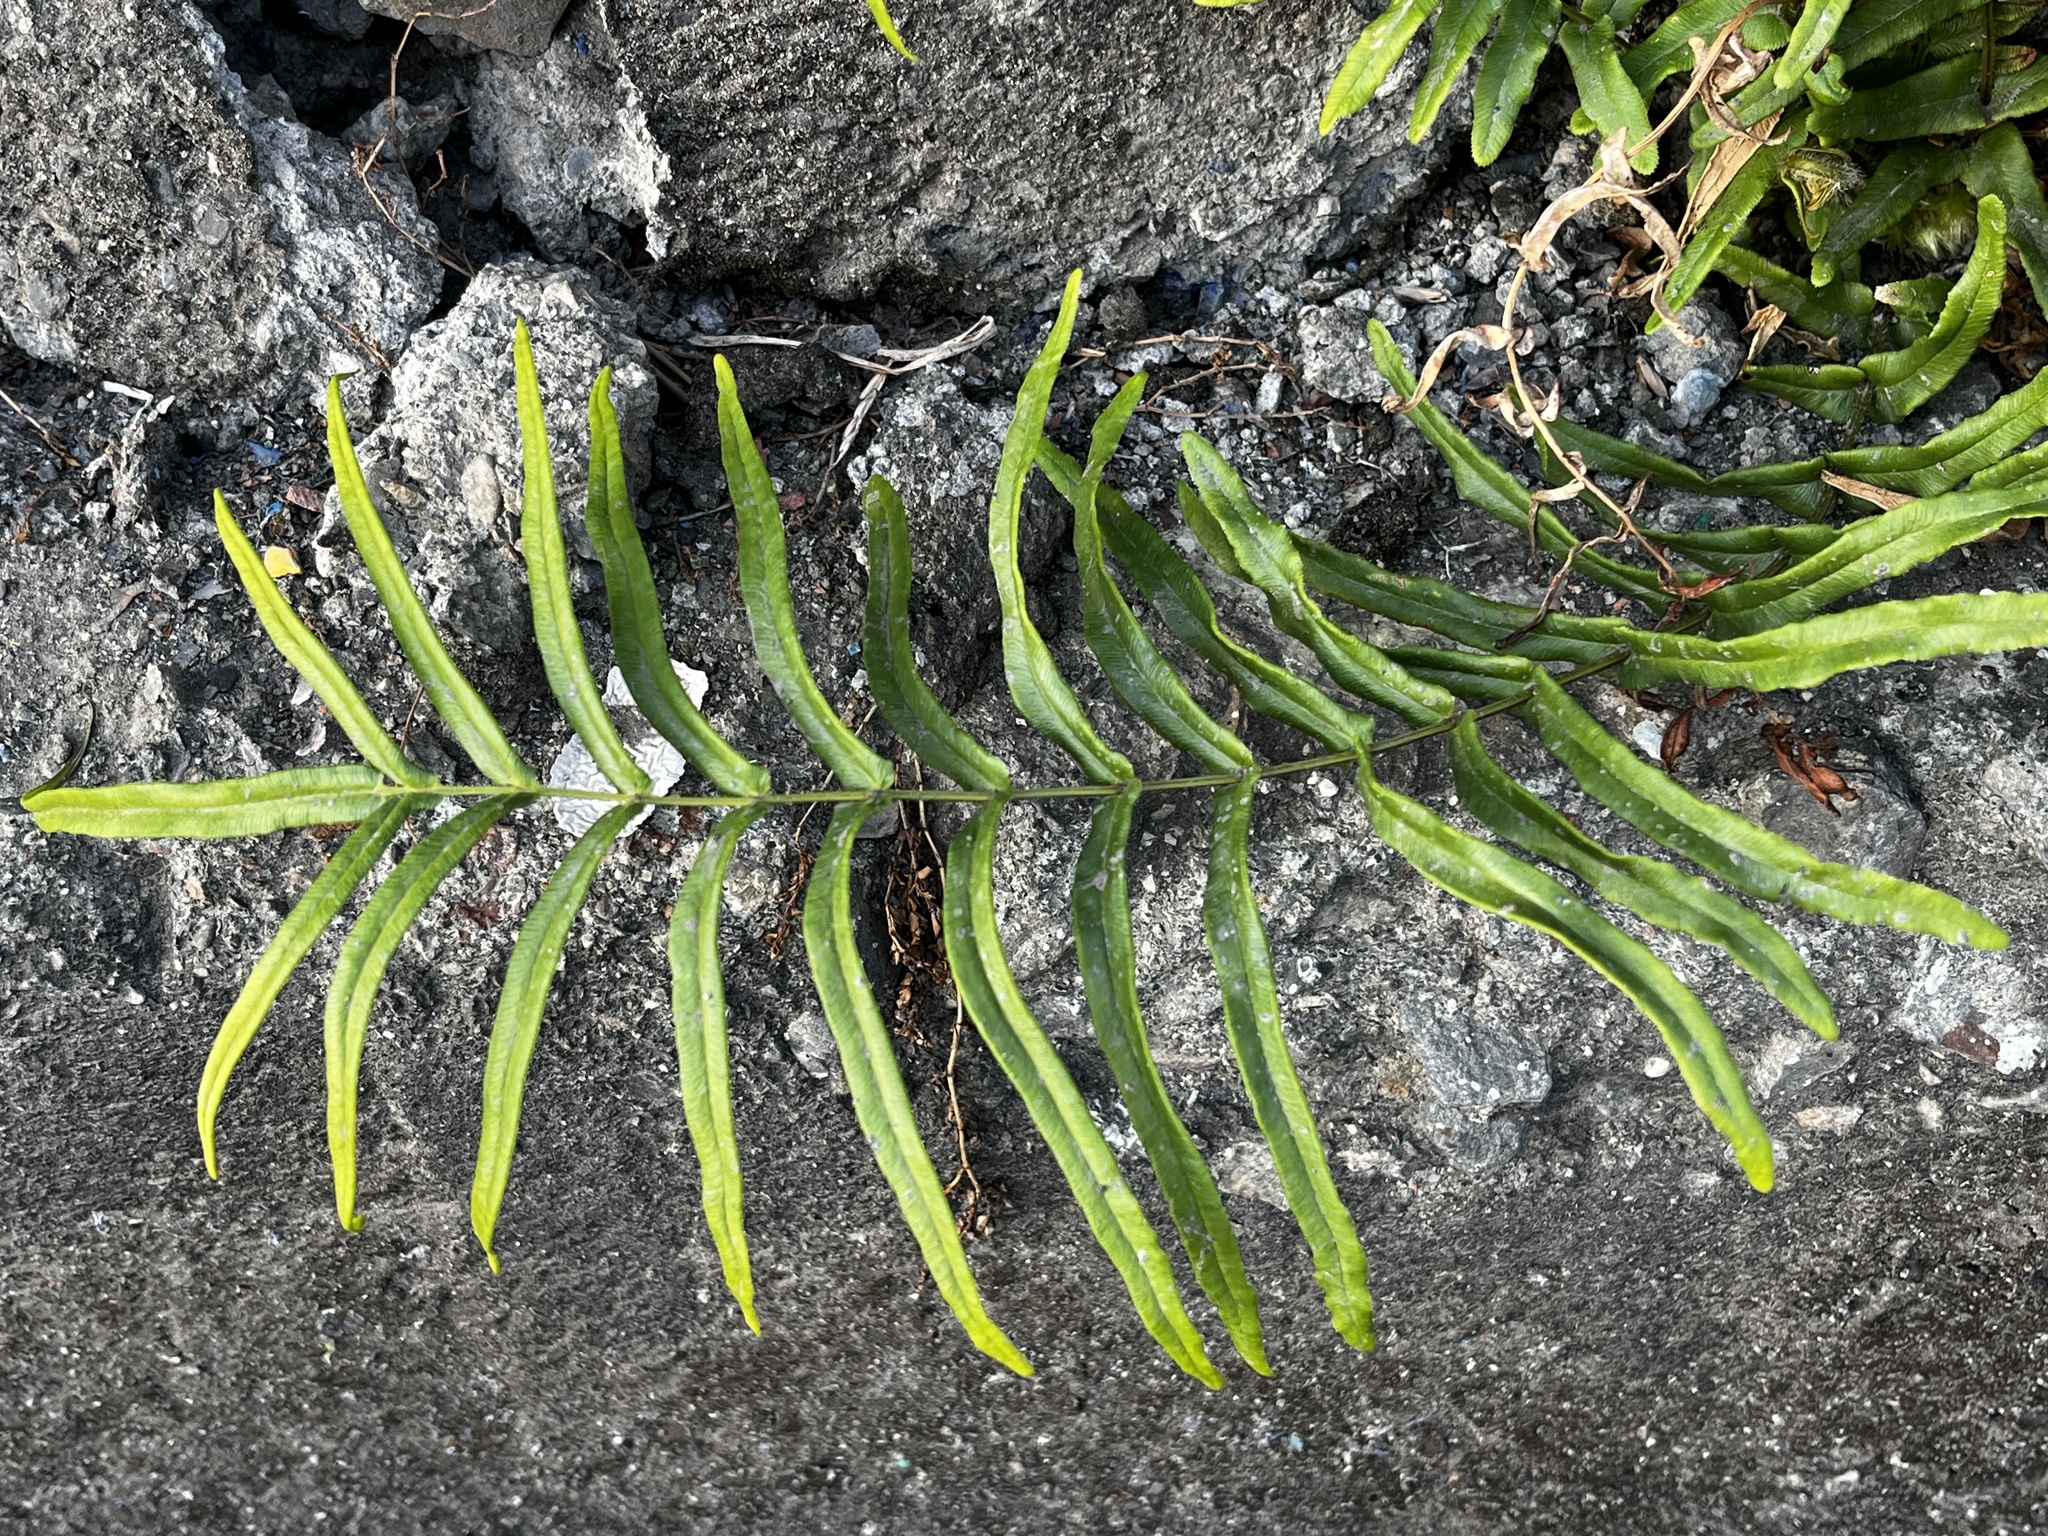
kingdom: Plantae
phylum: Tracheophyta
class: Polypodiopsida
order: Polypodiales
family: Pteridaceae
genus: Pteris
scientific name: Pteris vittata
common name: Ladder brake
